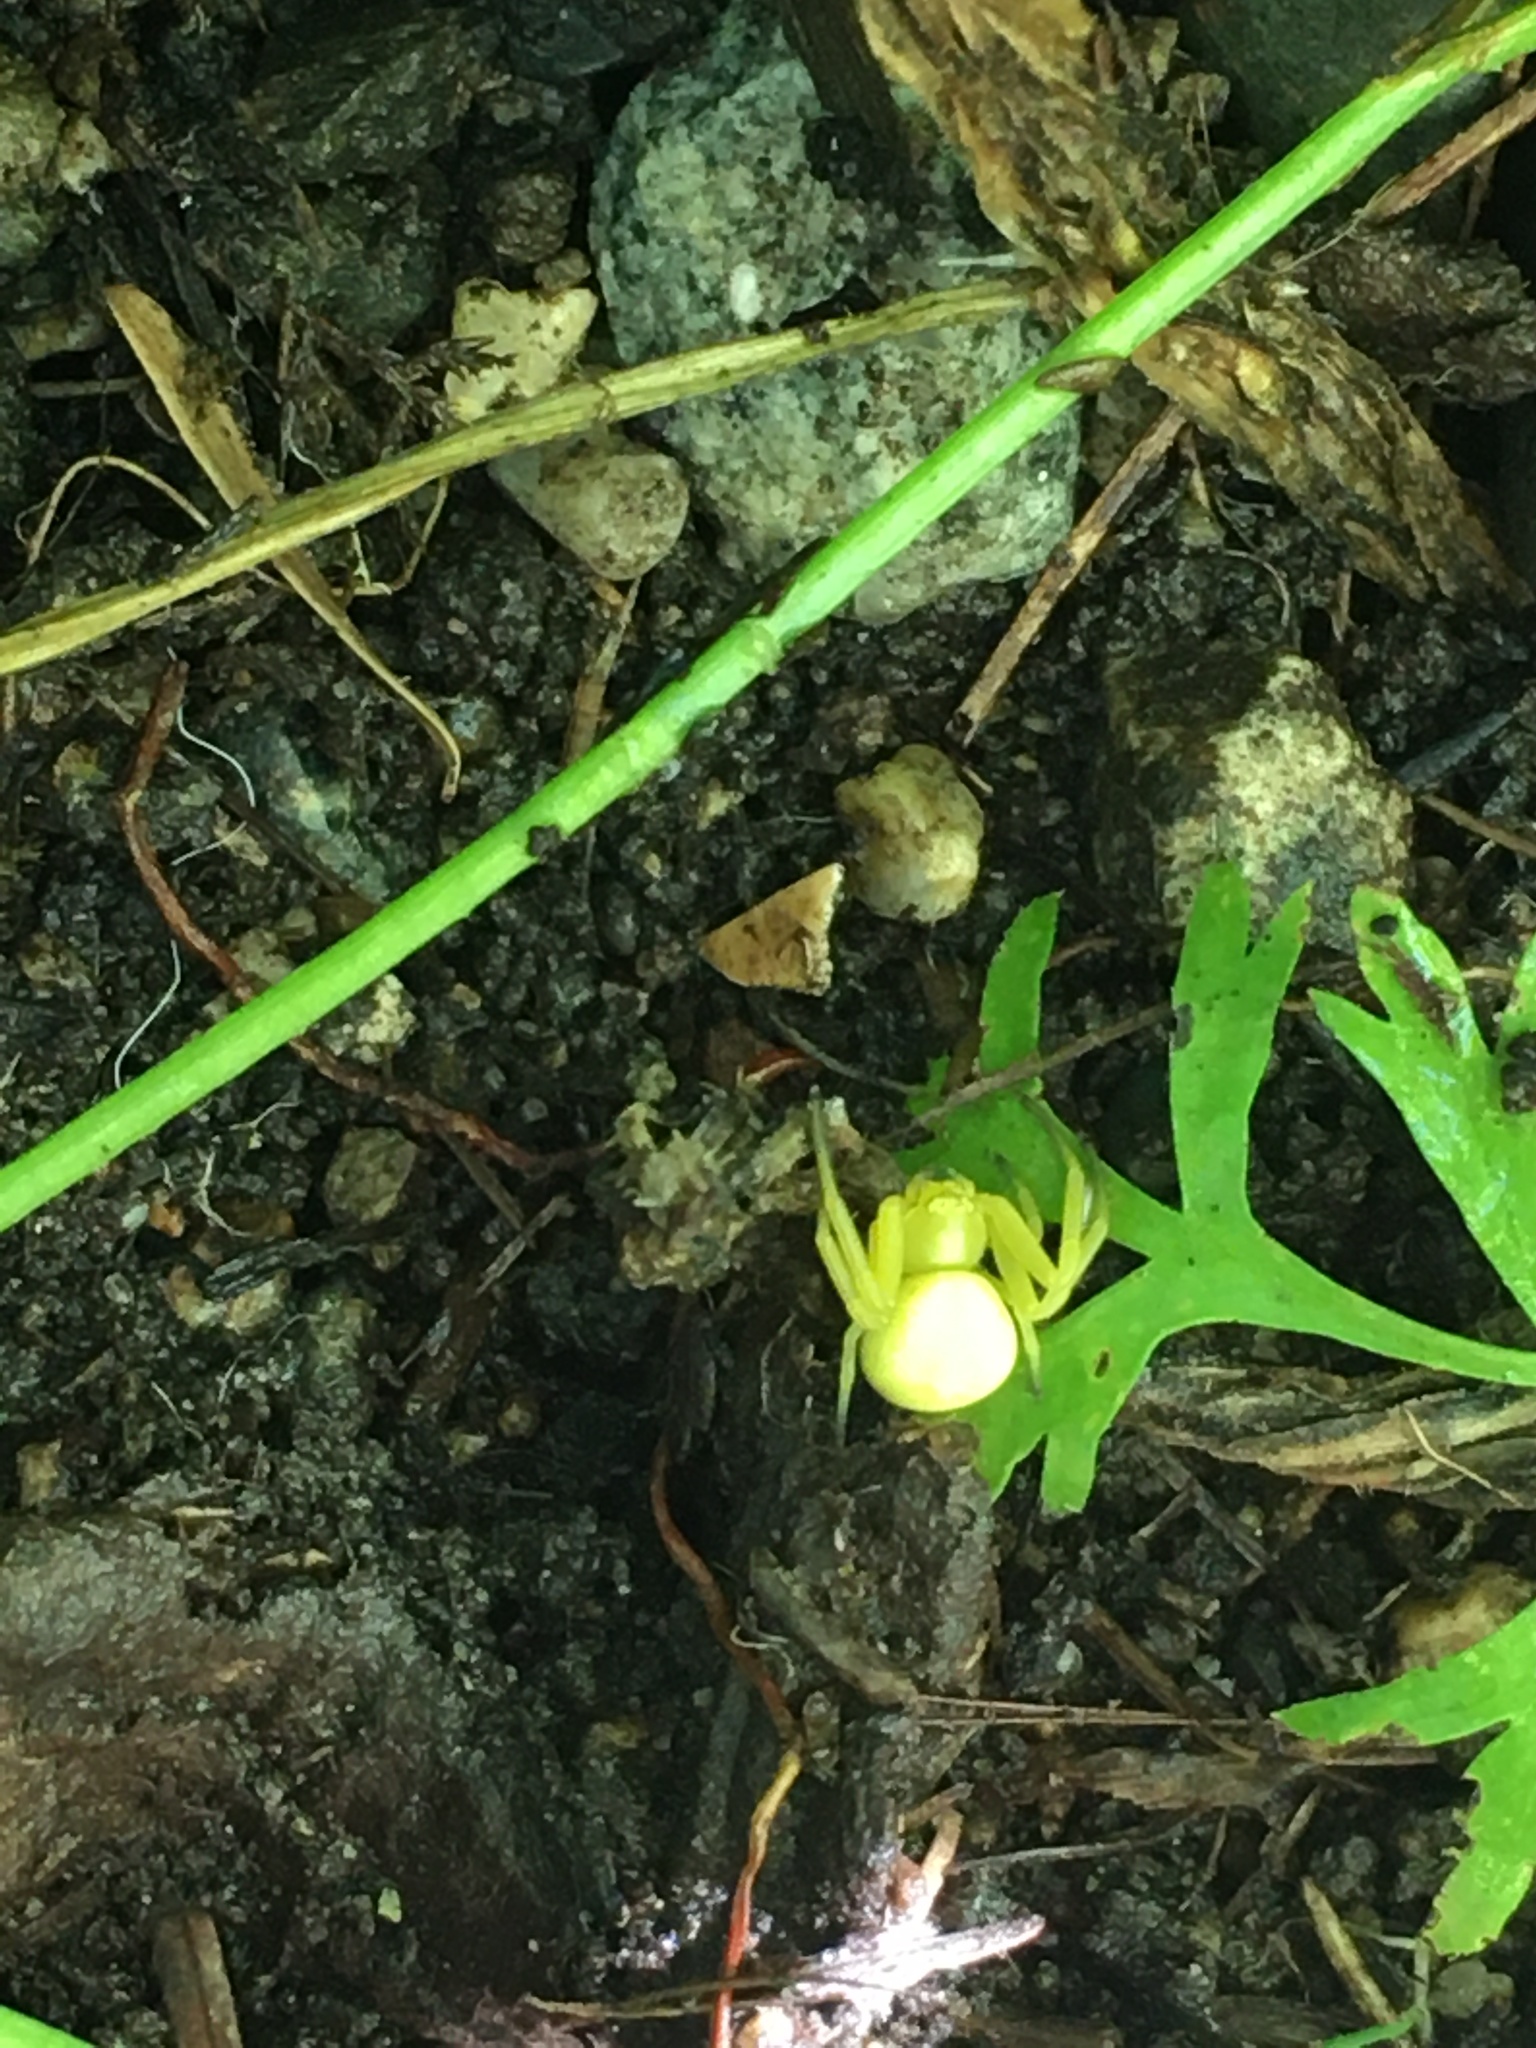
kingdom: Animalia
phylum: Arthropoda
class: Arachnida
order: Araneae
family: Thomisidae
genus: Misumena
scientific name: Misumena vatia
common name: Goldenrod crab spider
